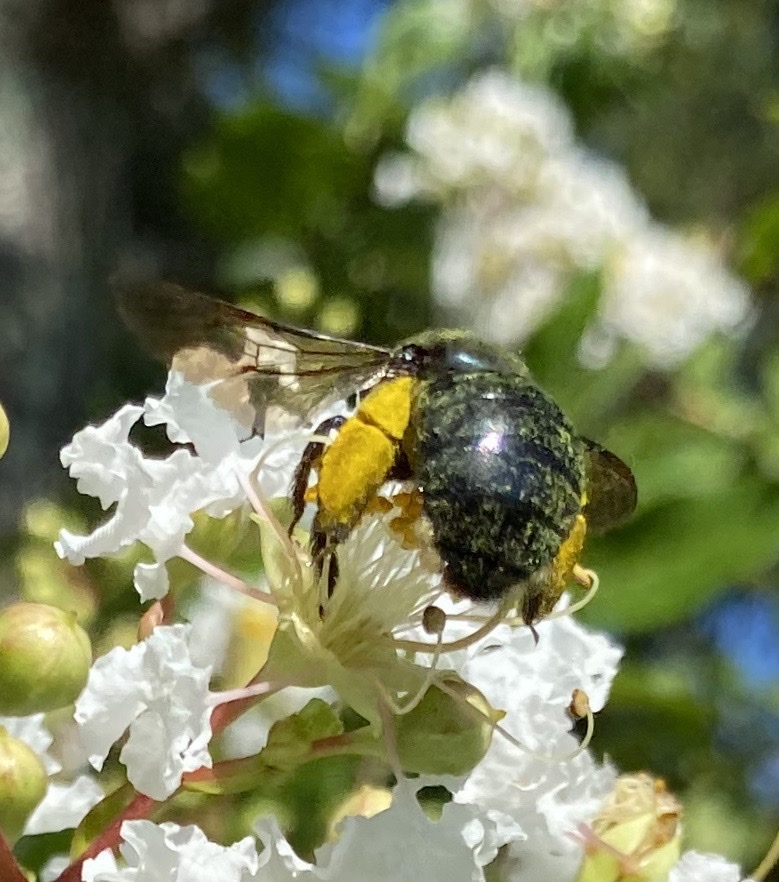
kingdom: Animalia
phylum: Arthropoda
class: Insecta
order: Hymenoptera
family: Apidae
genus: Xylocopa
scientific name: Xylocopa micans
